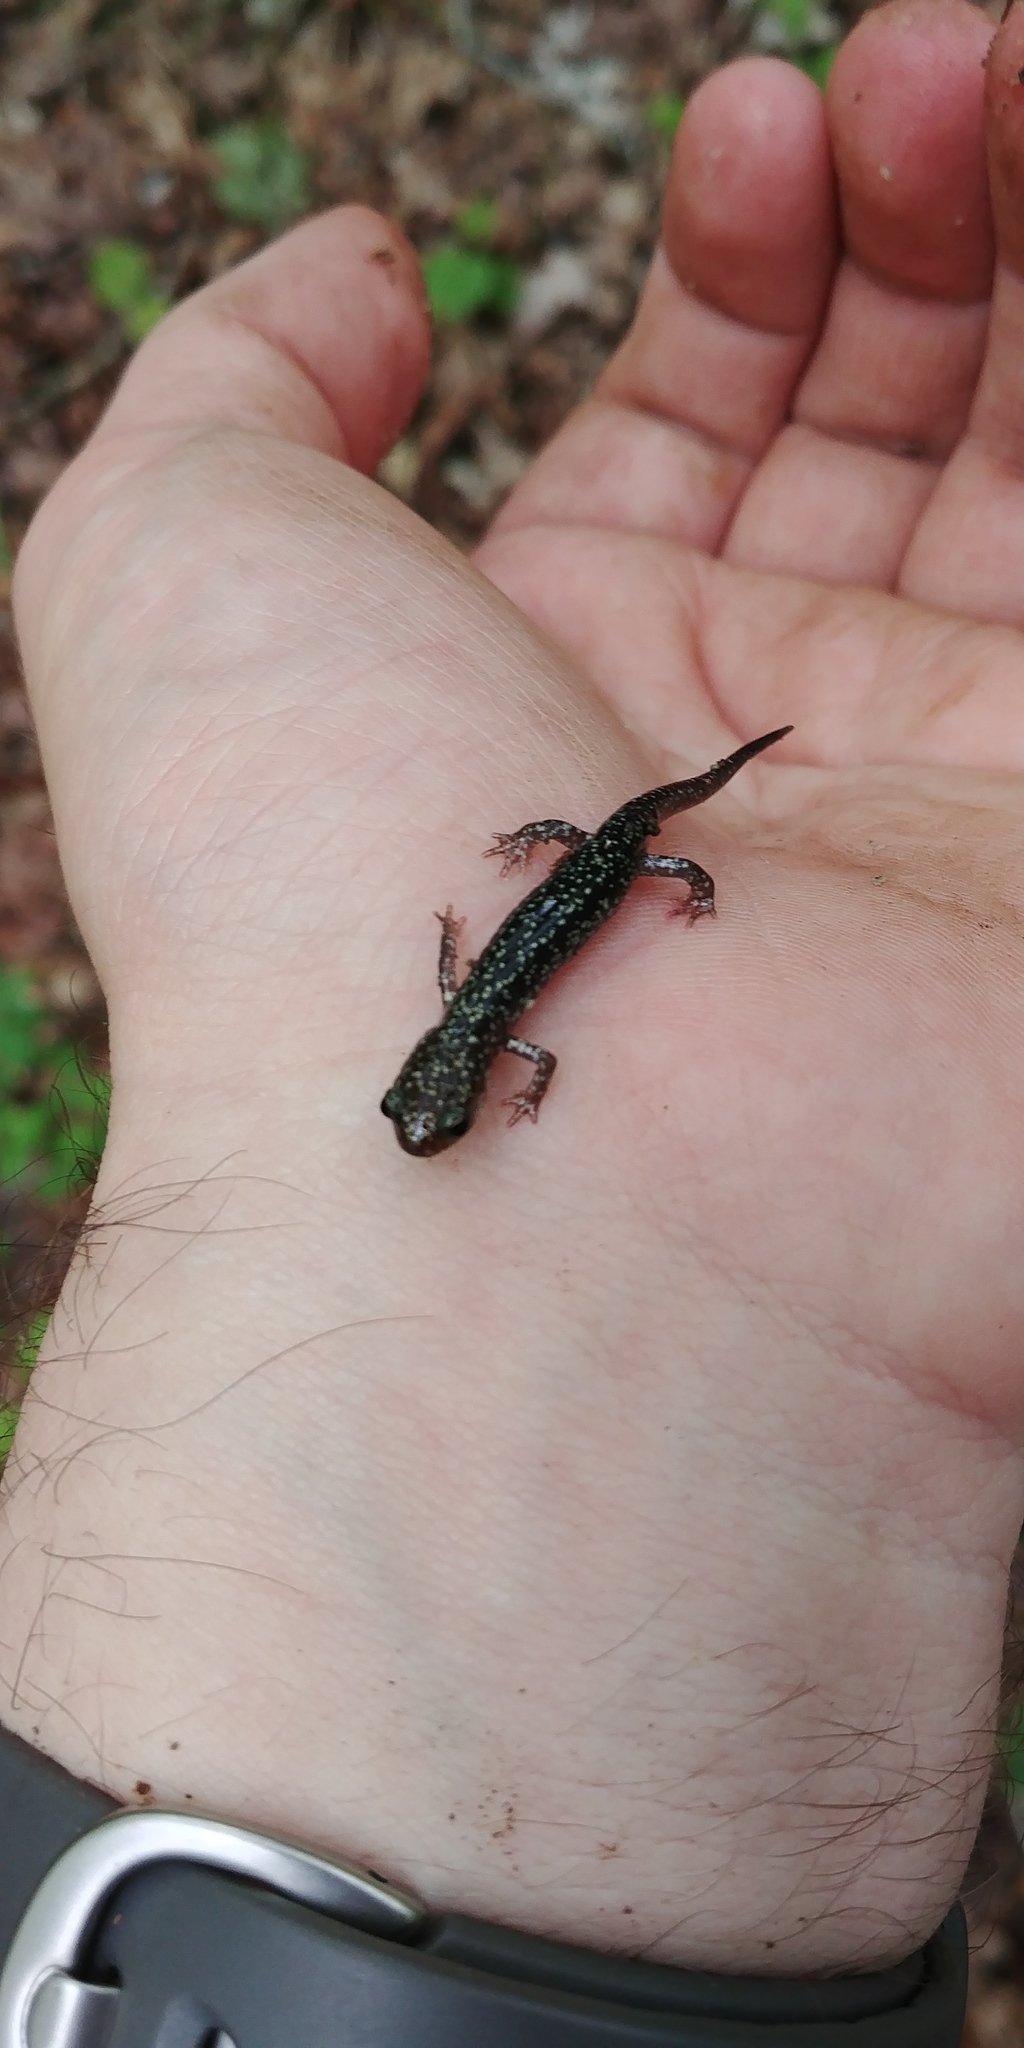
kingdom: Animalia
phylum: Chordata
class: Amphibia
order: Caudata
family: Plethodontidae
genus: Plethodon
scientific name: Plethodon glutinosus
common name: Northern slimy salamander
